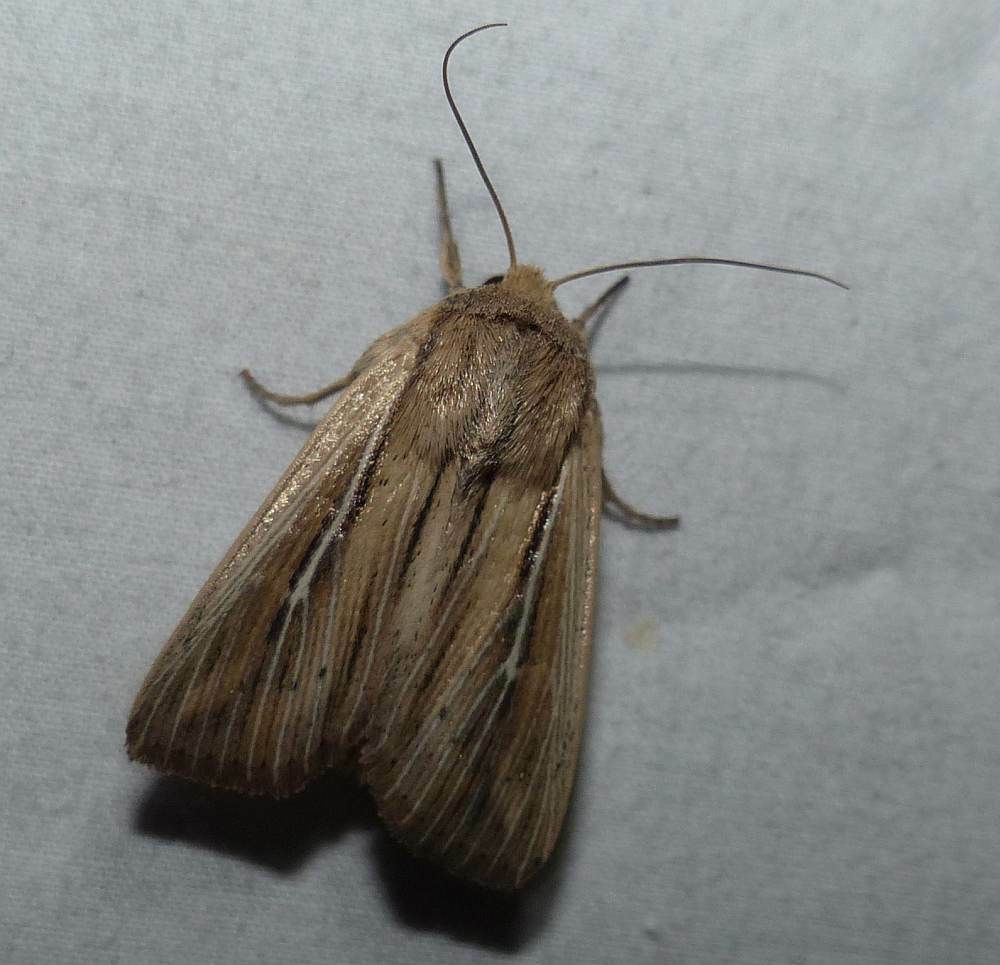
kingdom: Animalia
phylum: Arthropoda
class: Insecta
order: Lepidoptera
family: Noctuidae
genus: Leucania
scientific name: Leucania commoides
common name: Two-lined wainscot
